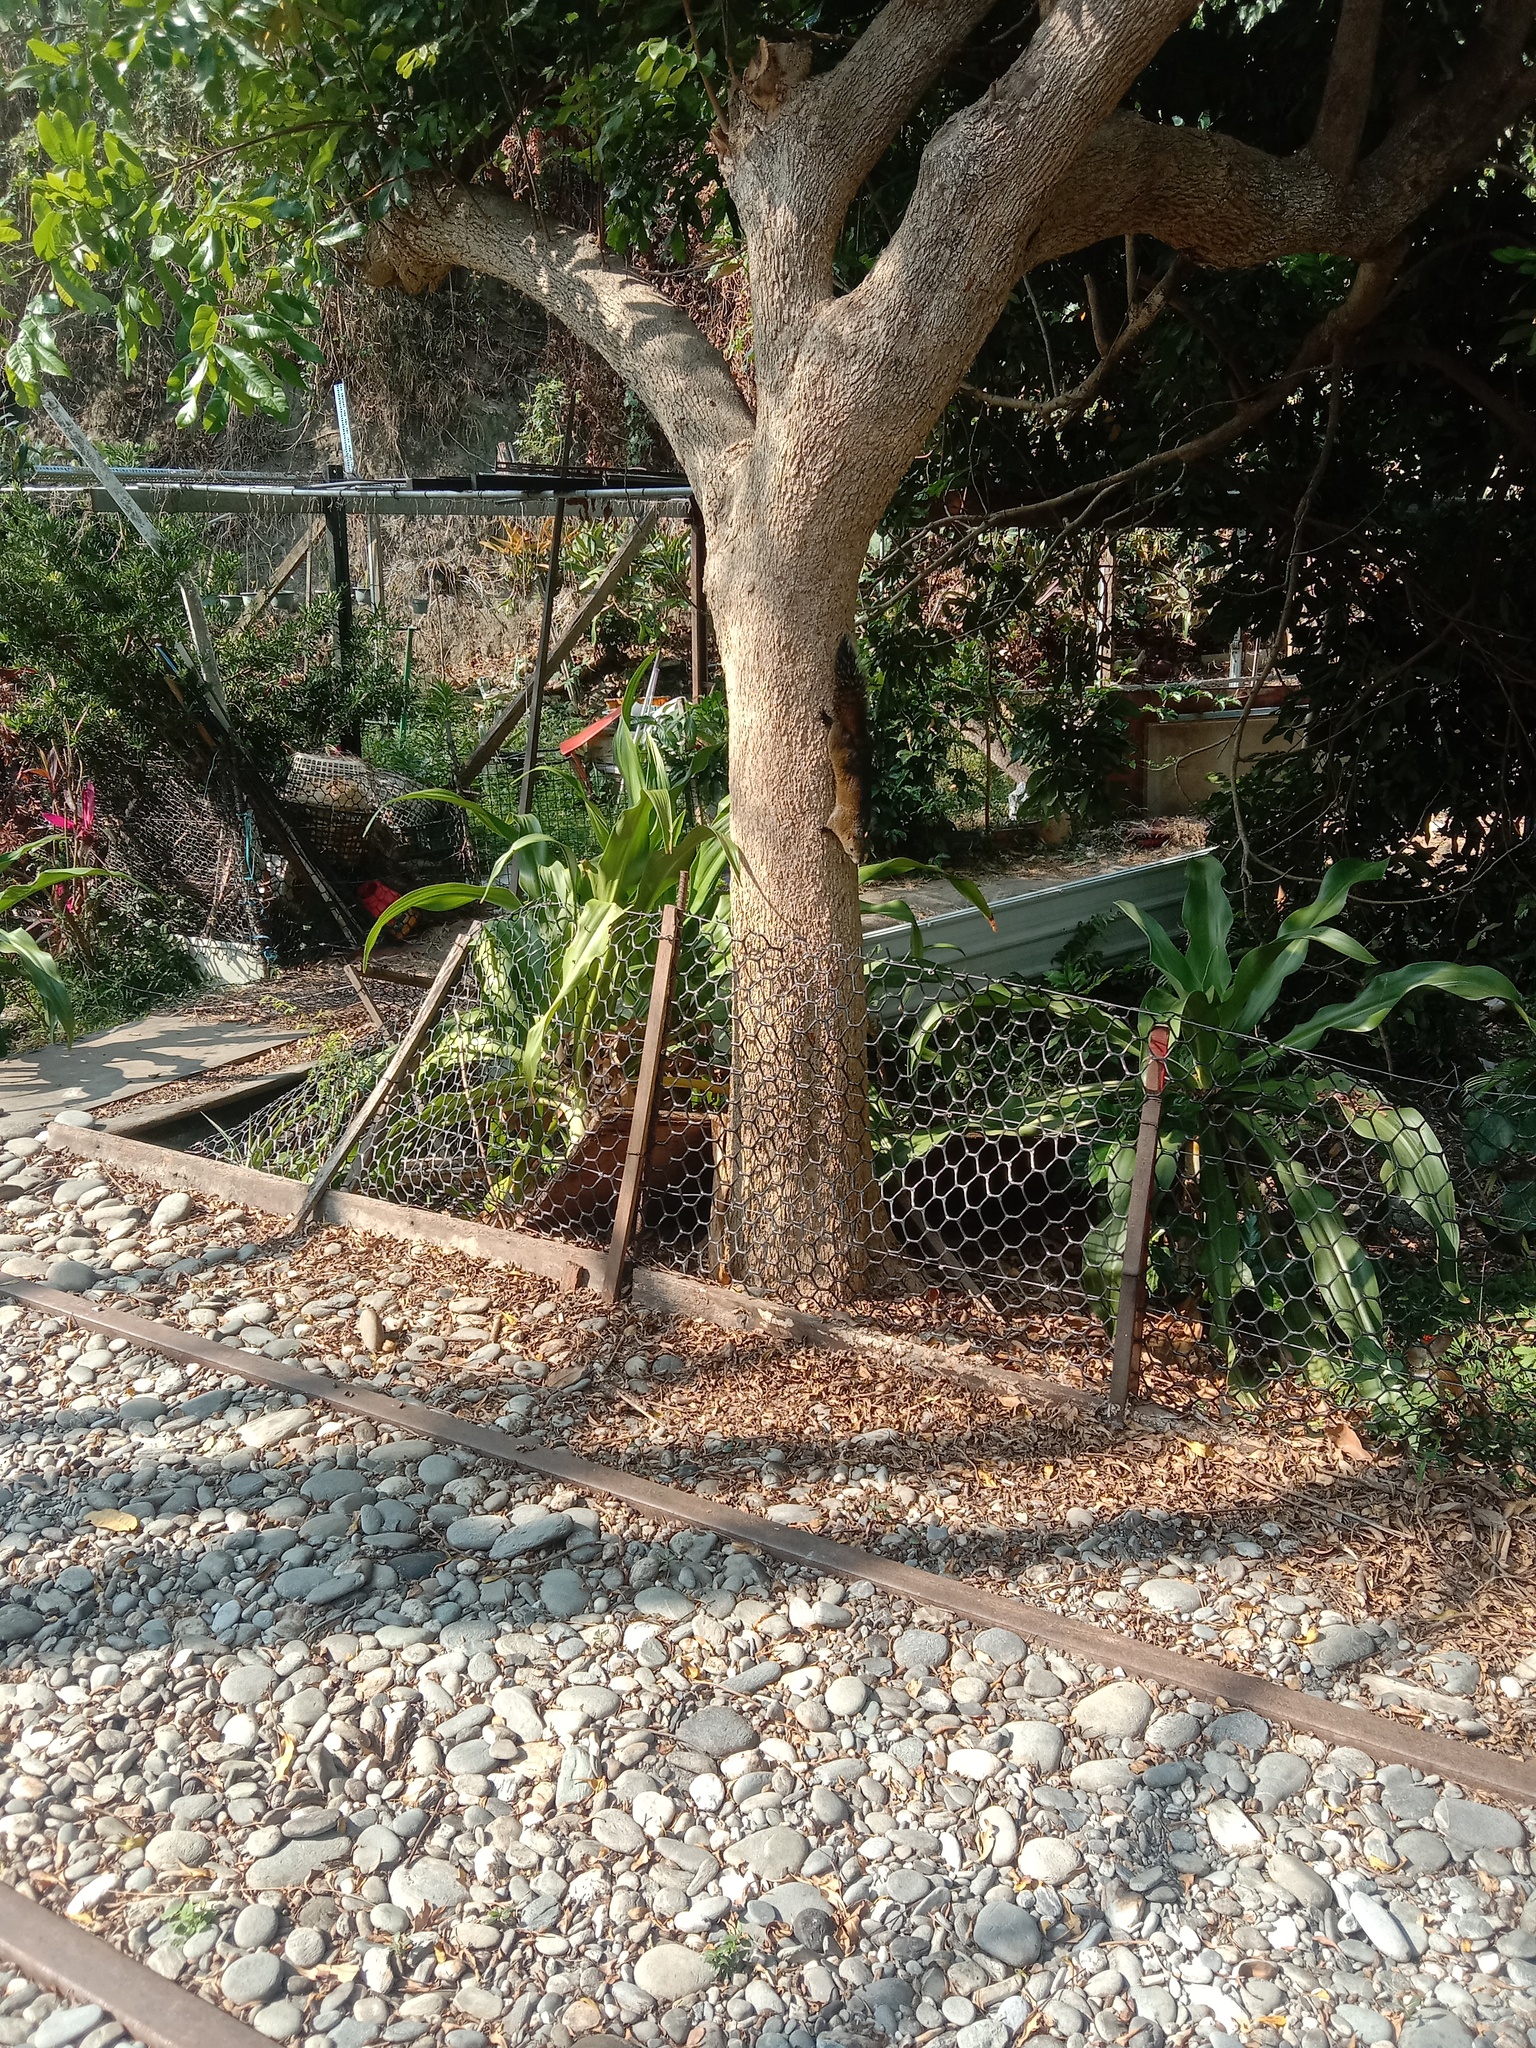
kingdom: Animalia
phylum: Chordata
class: Mammalia
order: Rodentia
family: Sciuridae
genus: Callosciurus
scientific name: Callosciurus erythraeus
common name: Pallas's squirrel
